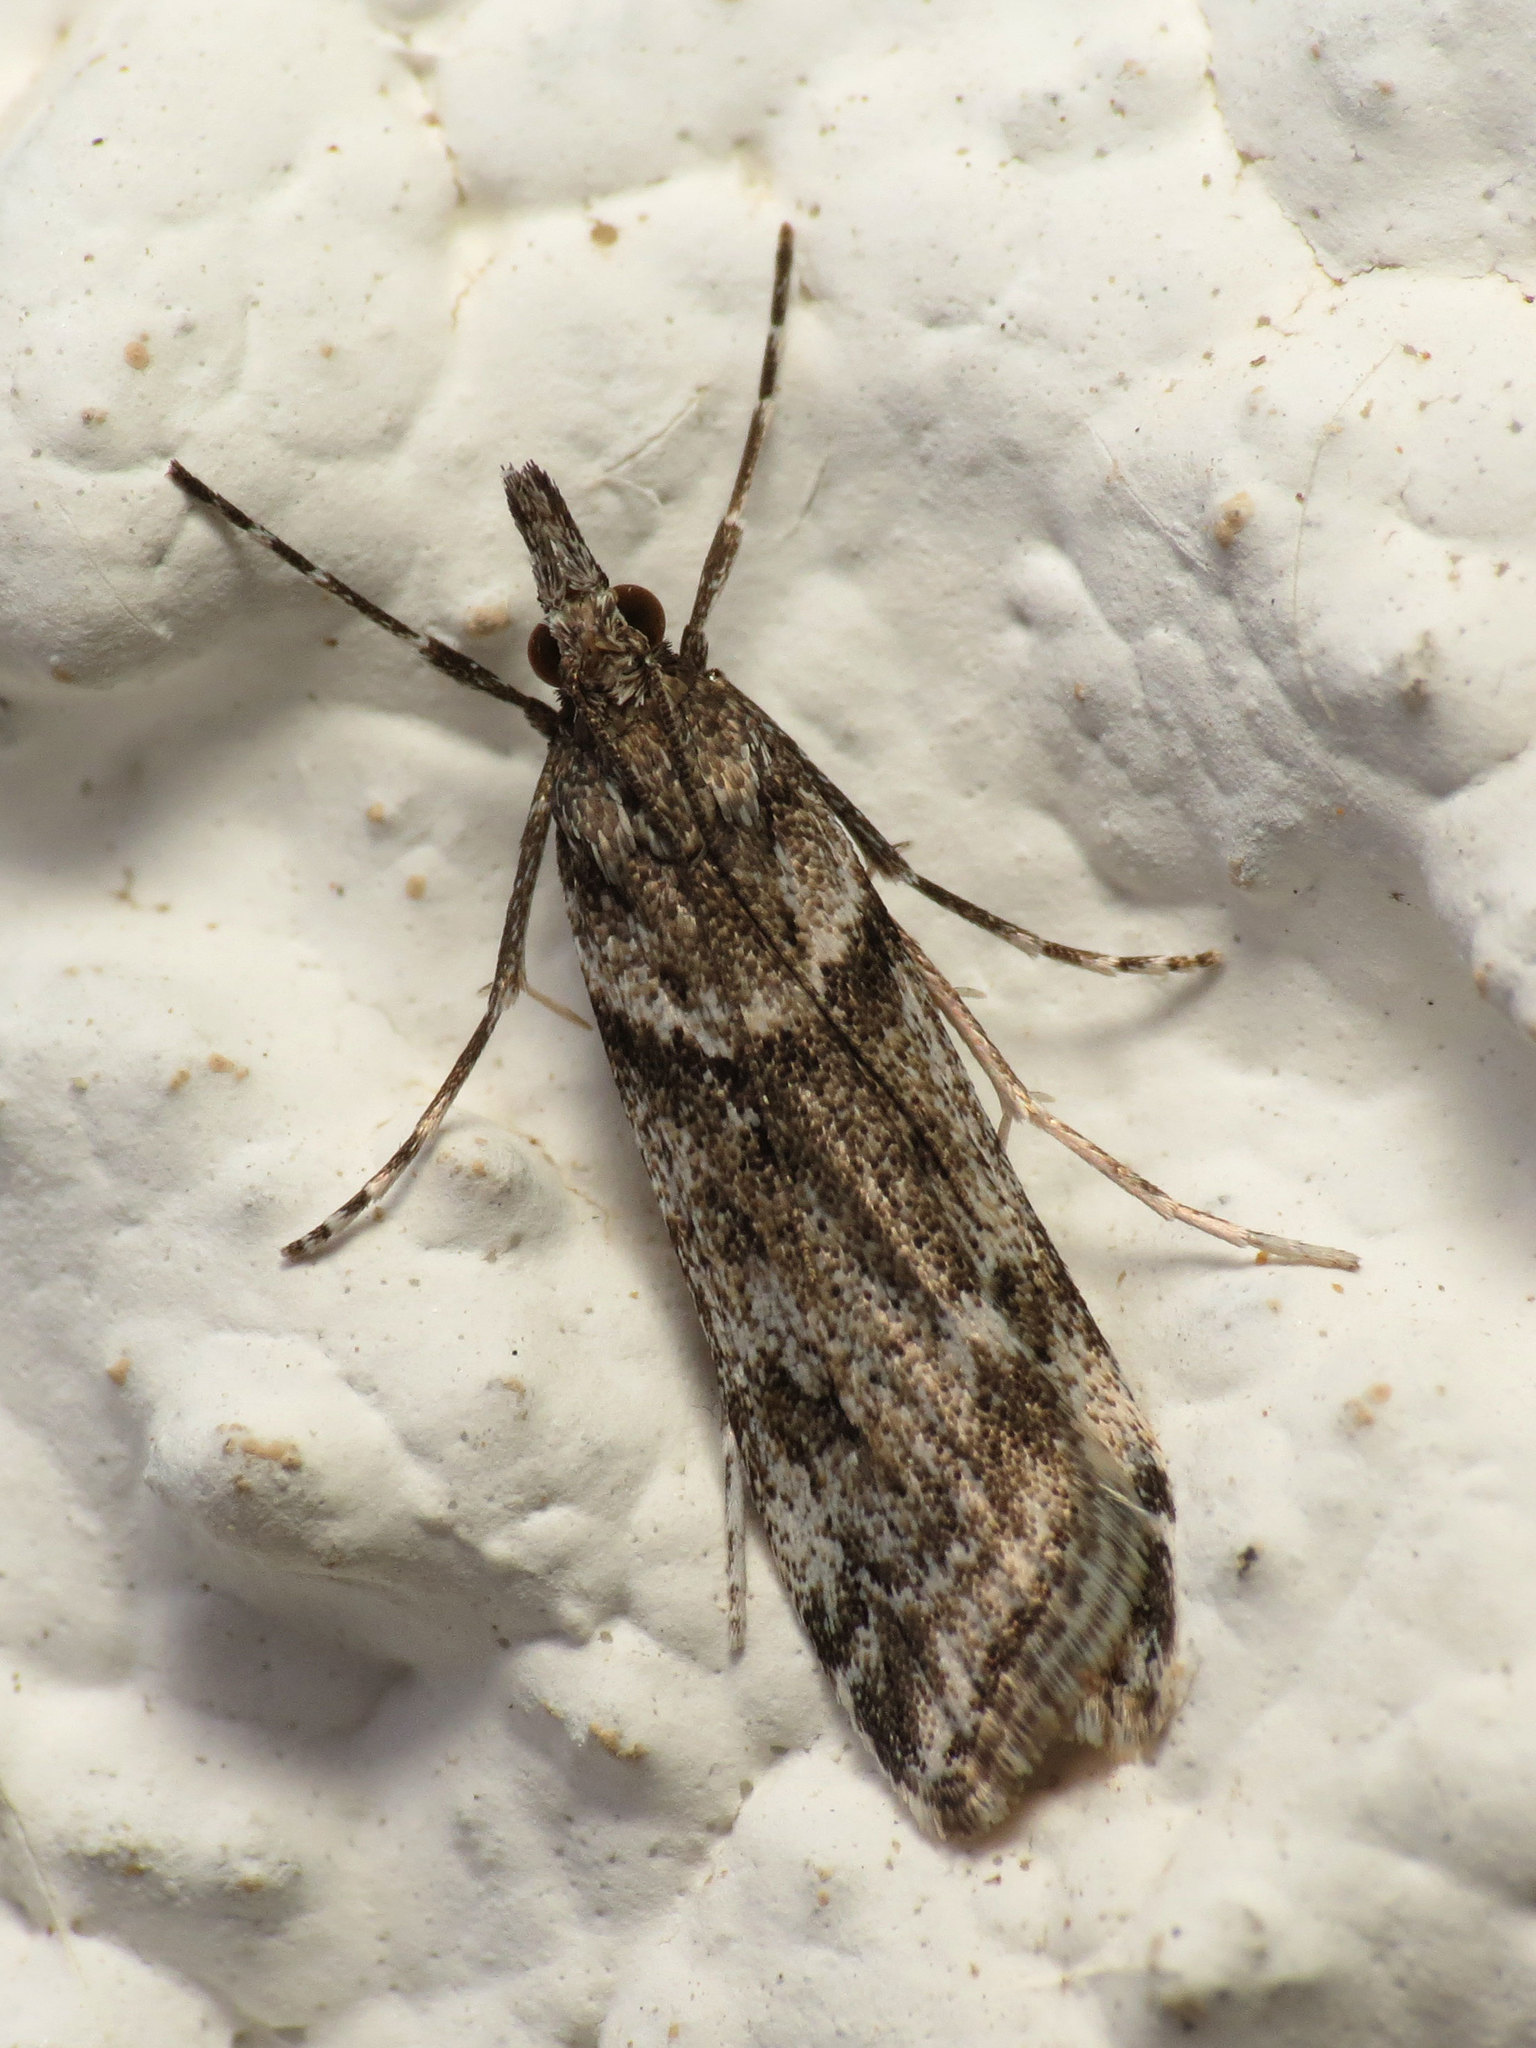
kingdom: Animalia
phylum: Arthropoda
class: Insecta
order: Lepidoptera
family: Crambidae
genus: Eudonia
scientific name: Eudonia angustea
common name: Narrow-winged grey
